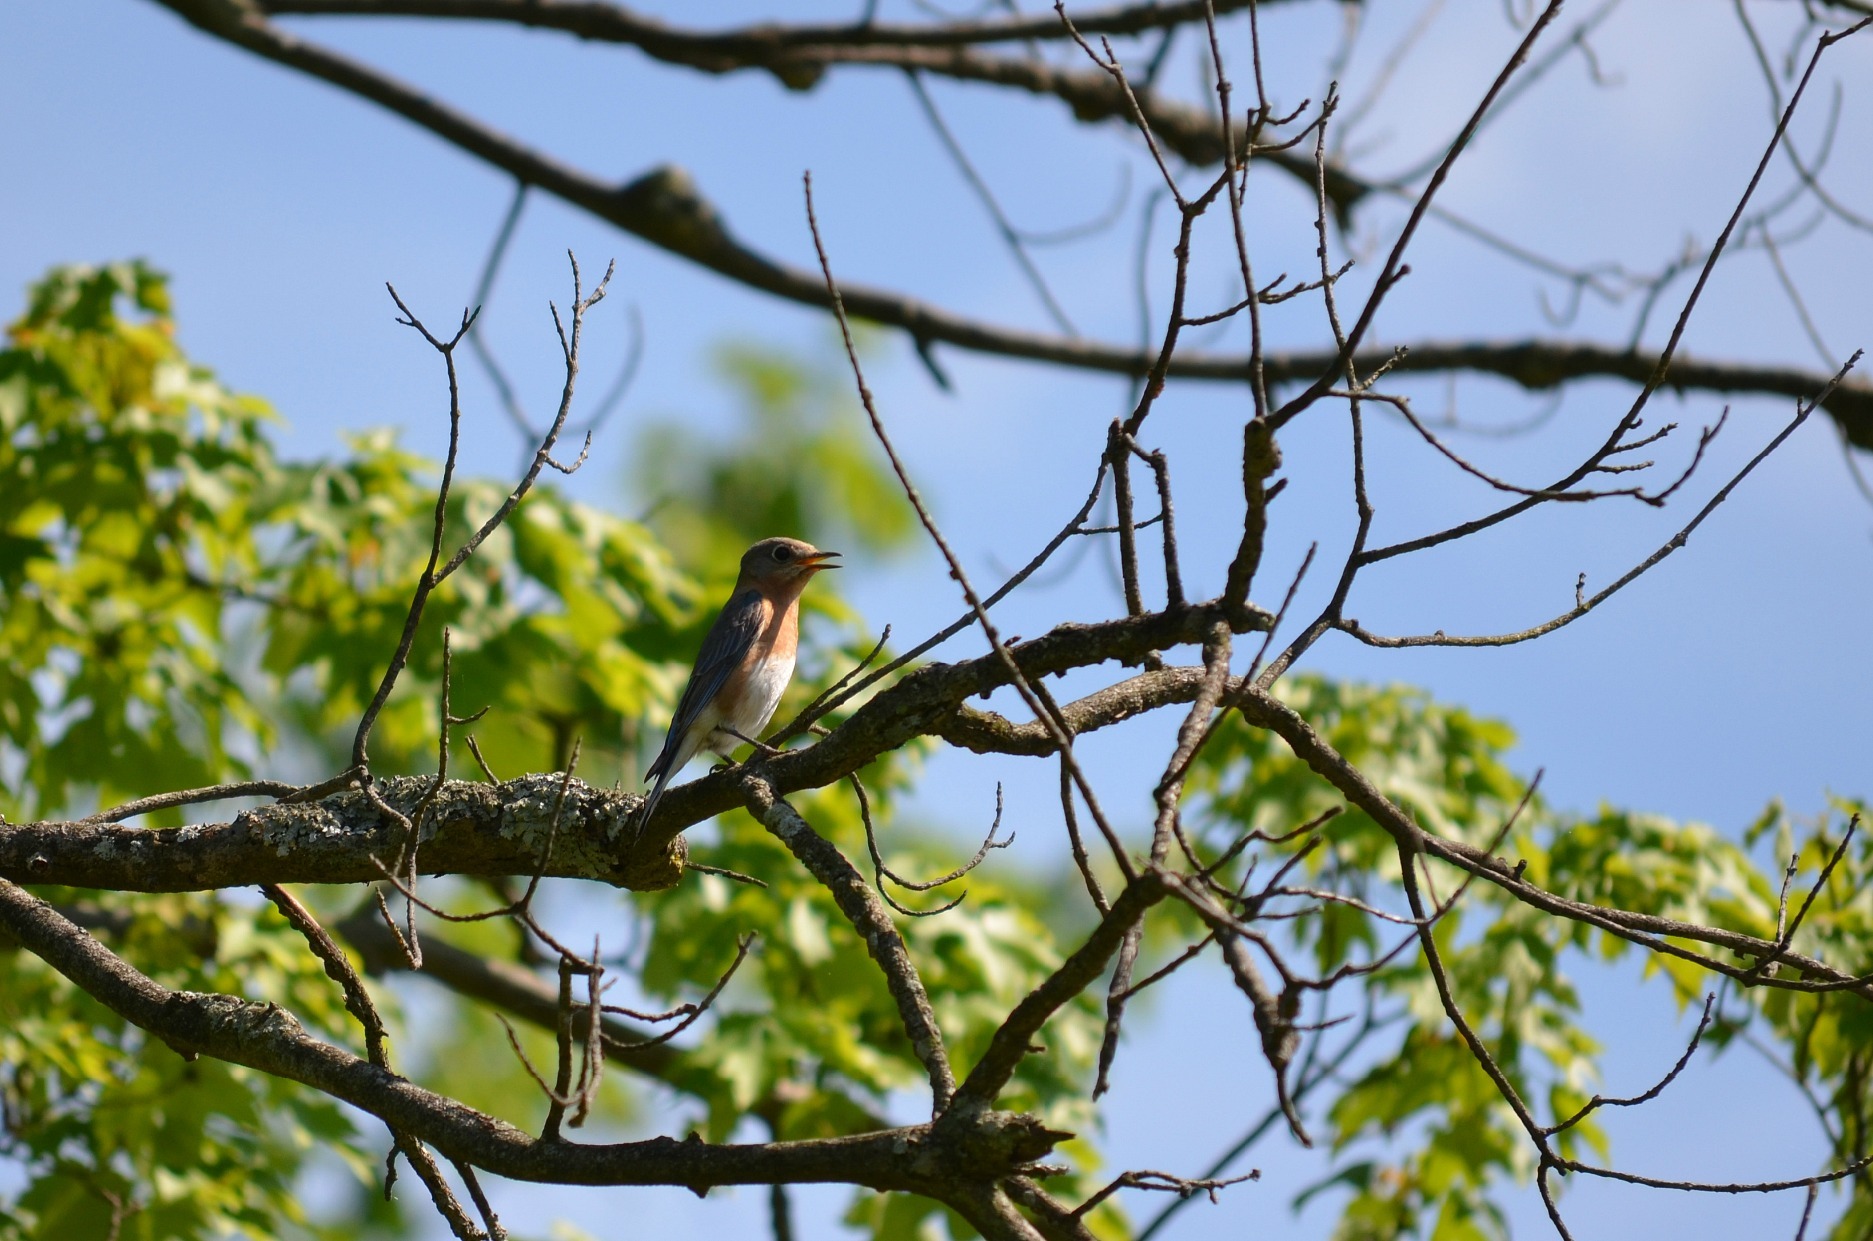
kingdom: Animalia
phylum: Chordata
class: Aves
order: Passeriformes
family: Turdidae
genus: Sialia
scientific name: Sialia sialis
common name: Eastern bluebird
